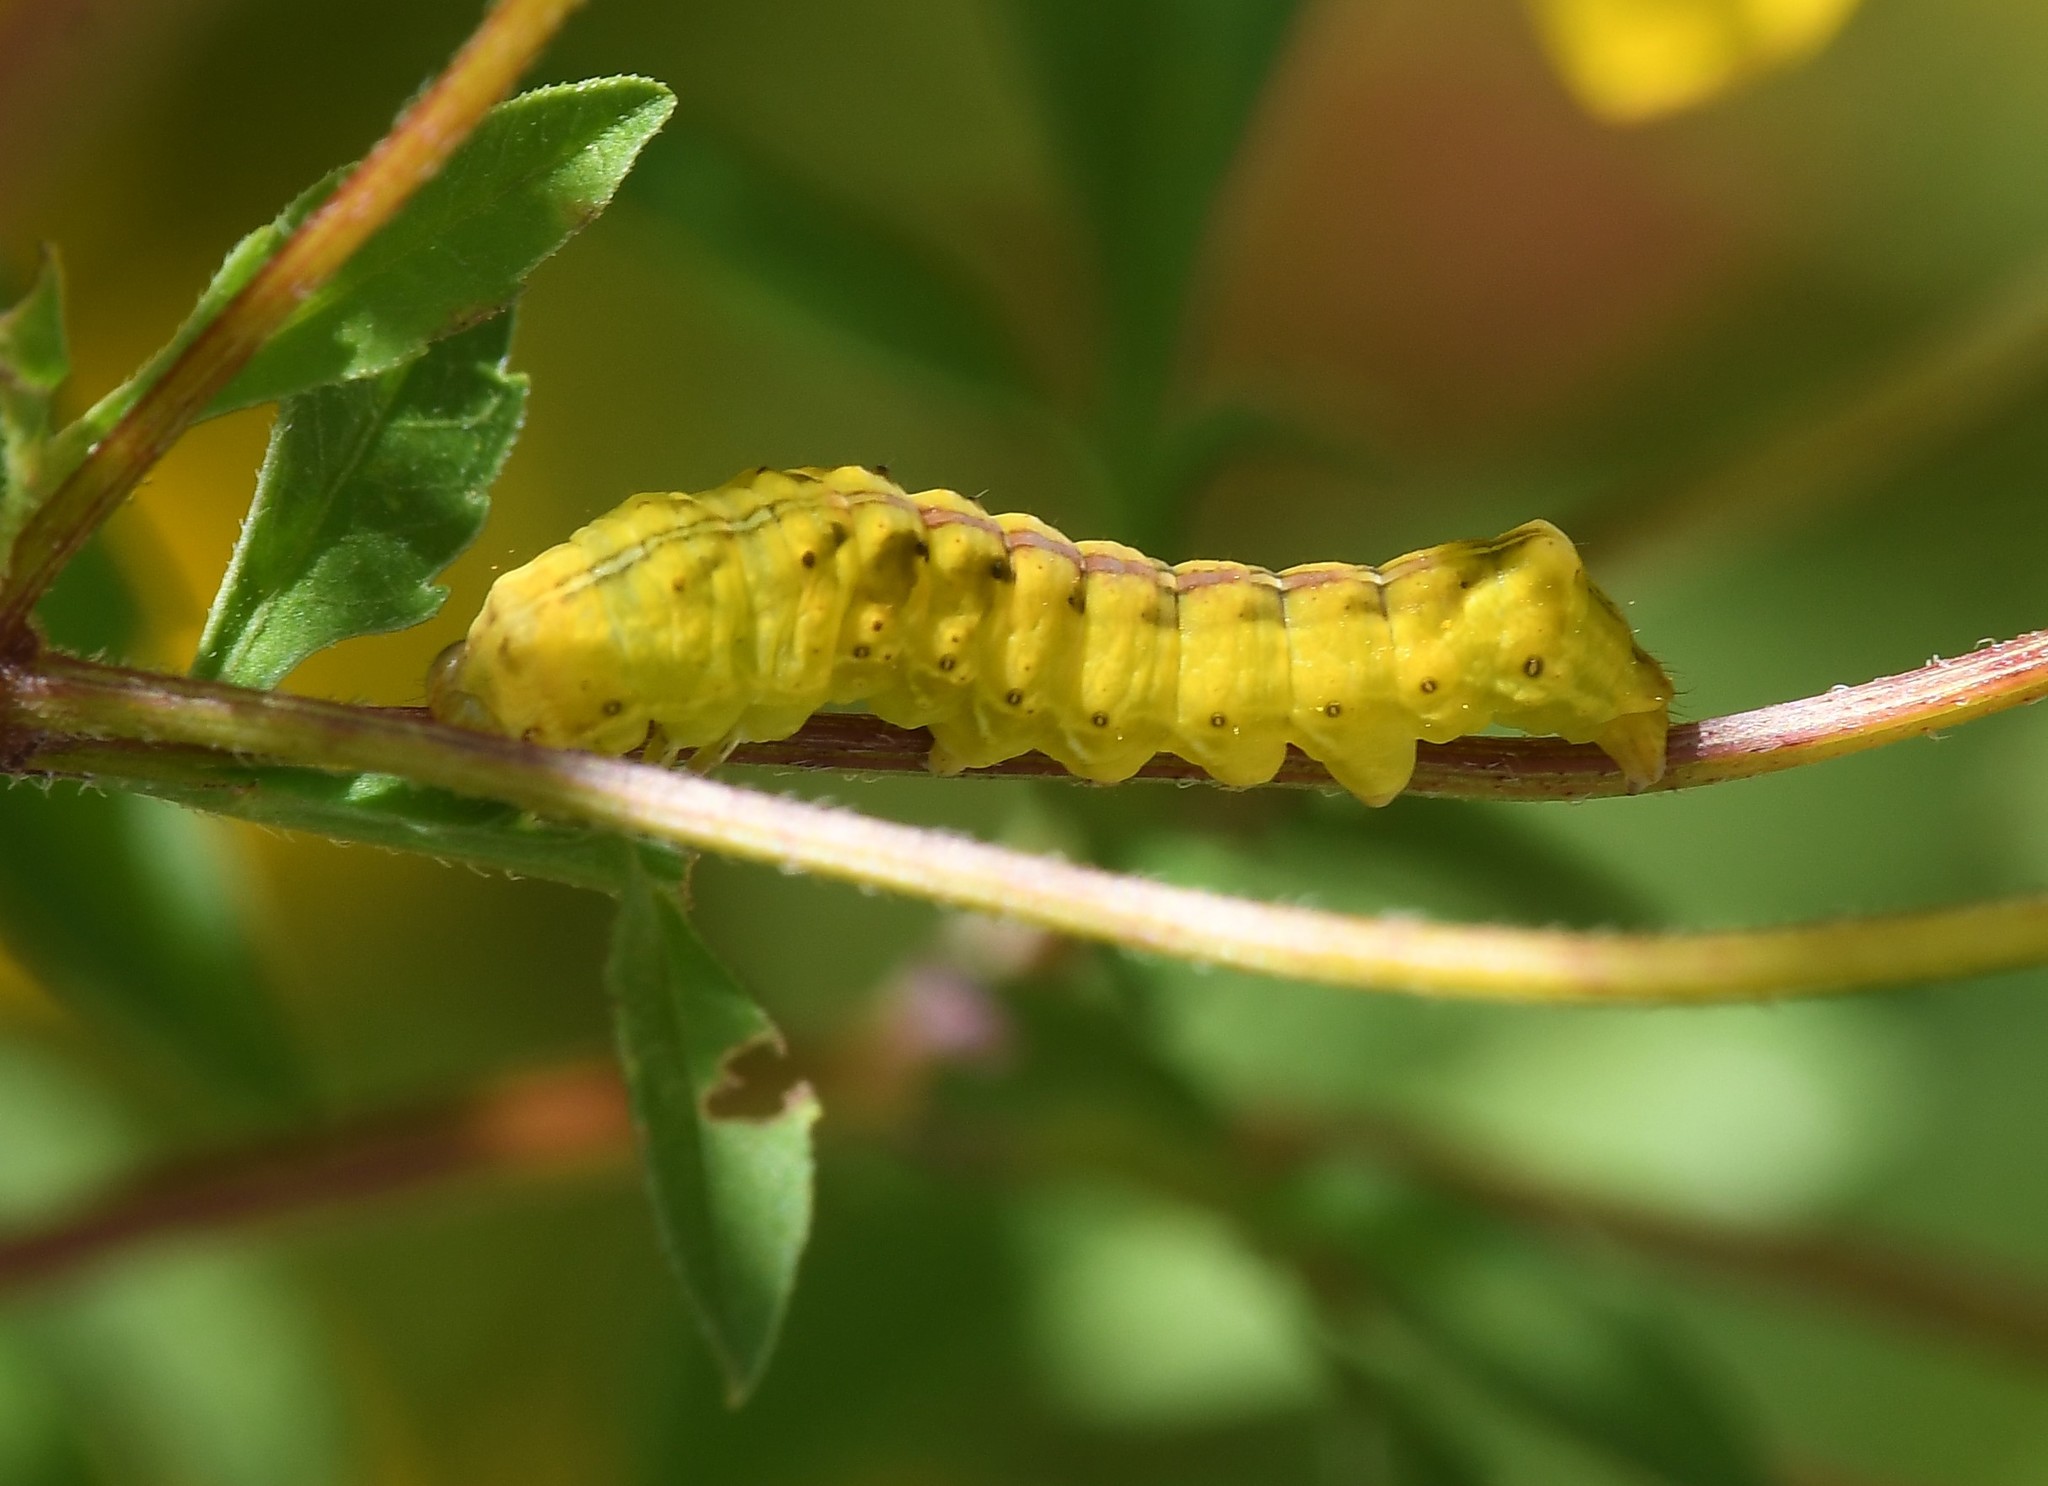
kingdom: Animalia
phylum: Arthropoda
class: Insecta
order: Lepidoptera
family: Noctuidae
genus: Cirrhophanus
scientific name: Cirrhophanus triangulifer
